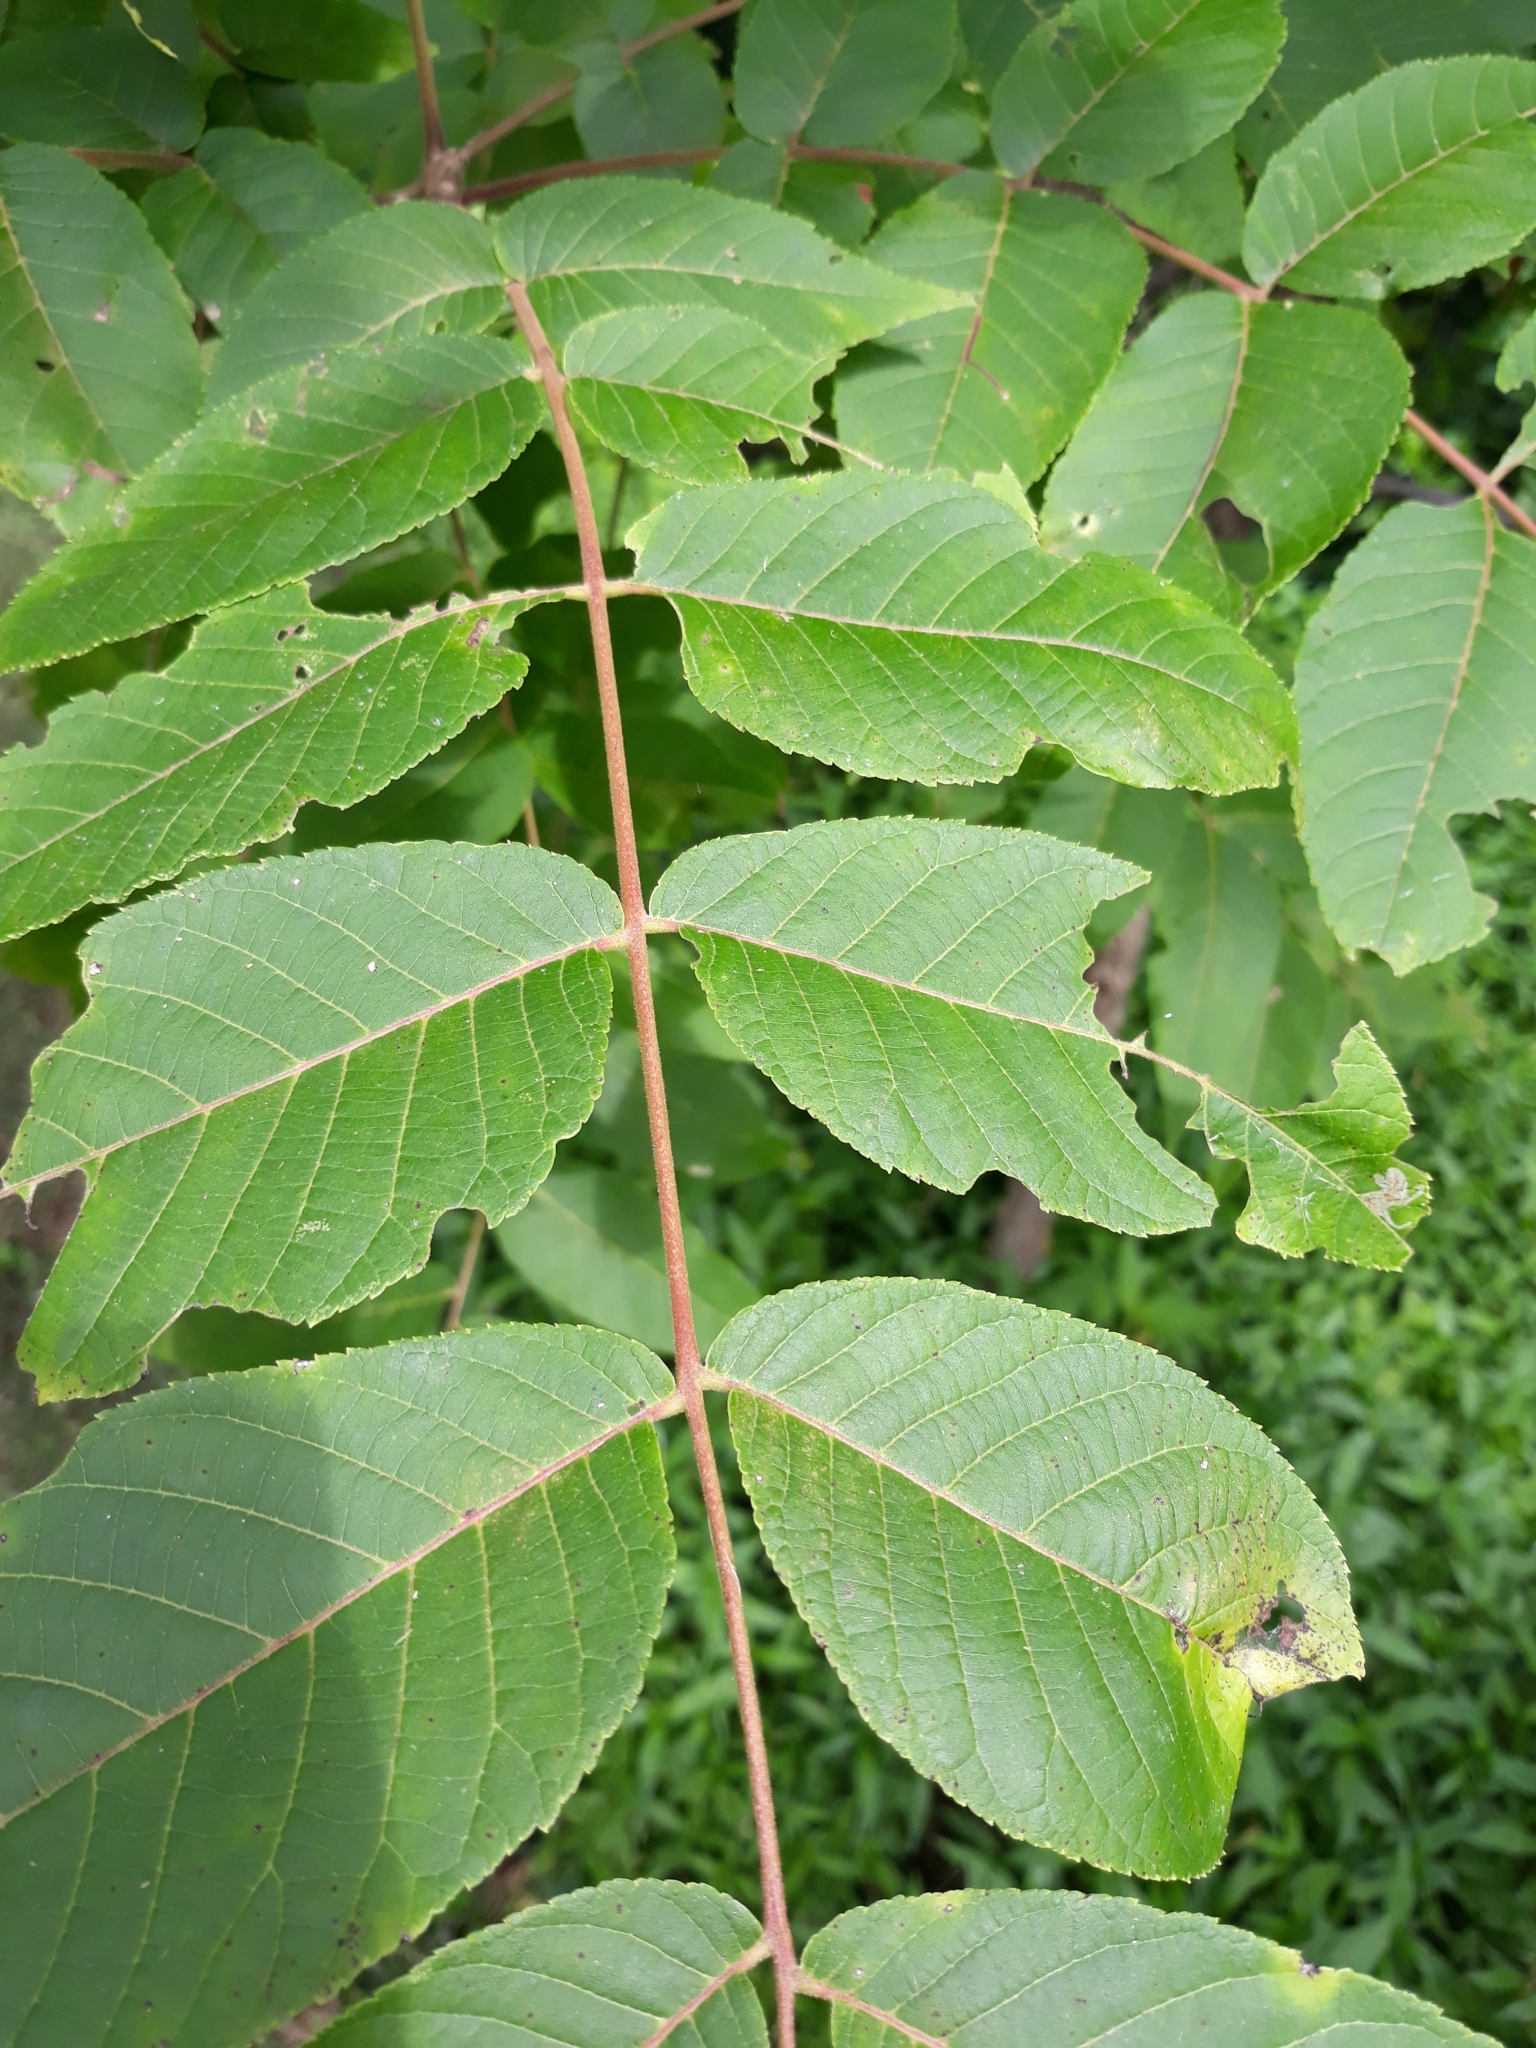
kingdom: Plantae
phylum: Tracheophyta
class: Magnoliopsida
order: Fagales
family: Juglandaceae
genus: Juglans
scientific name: Juglans nigra
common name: Black walnut
